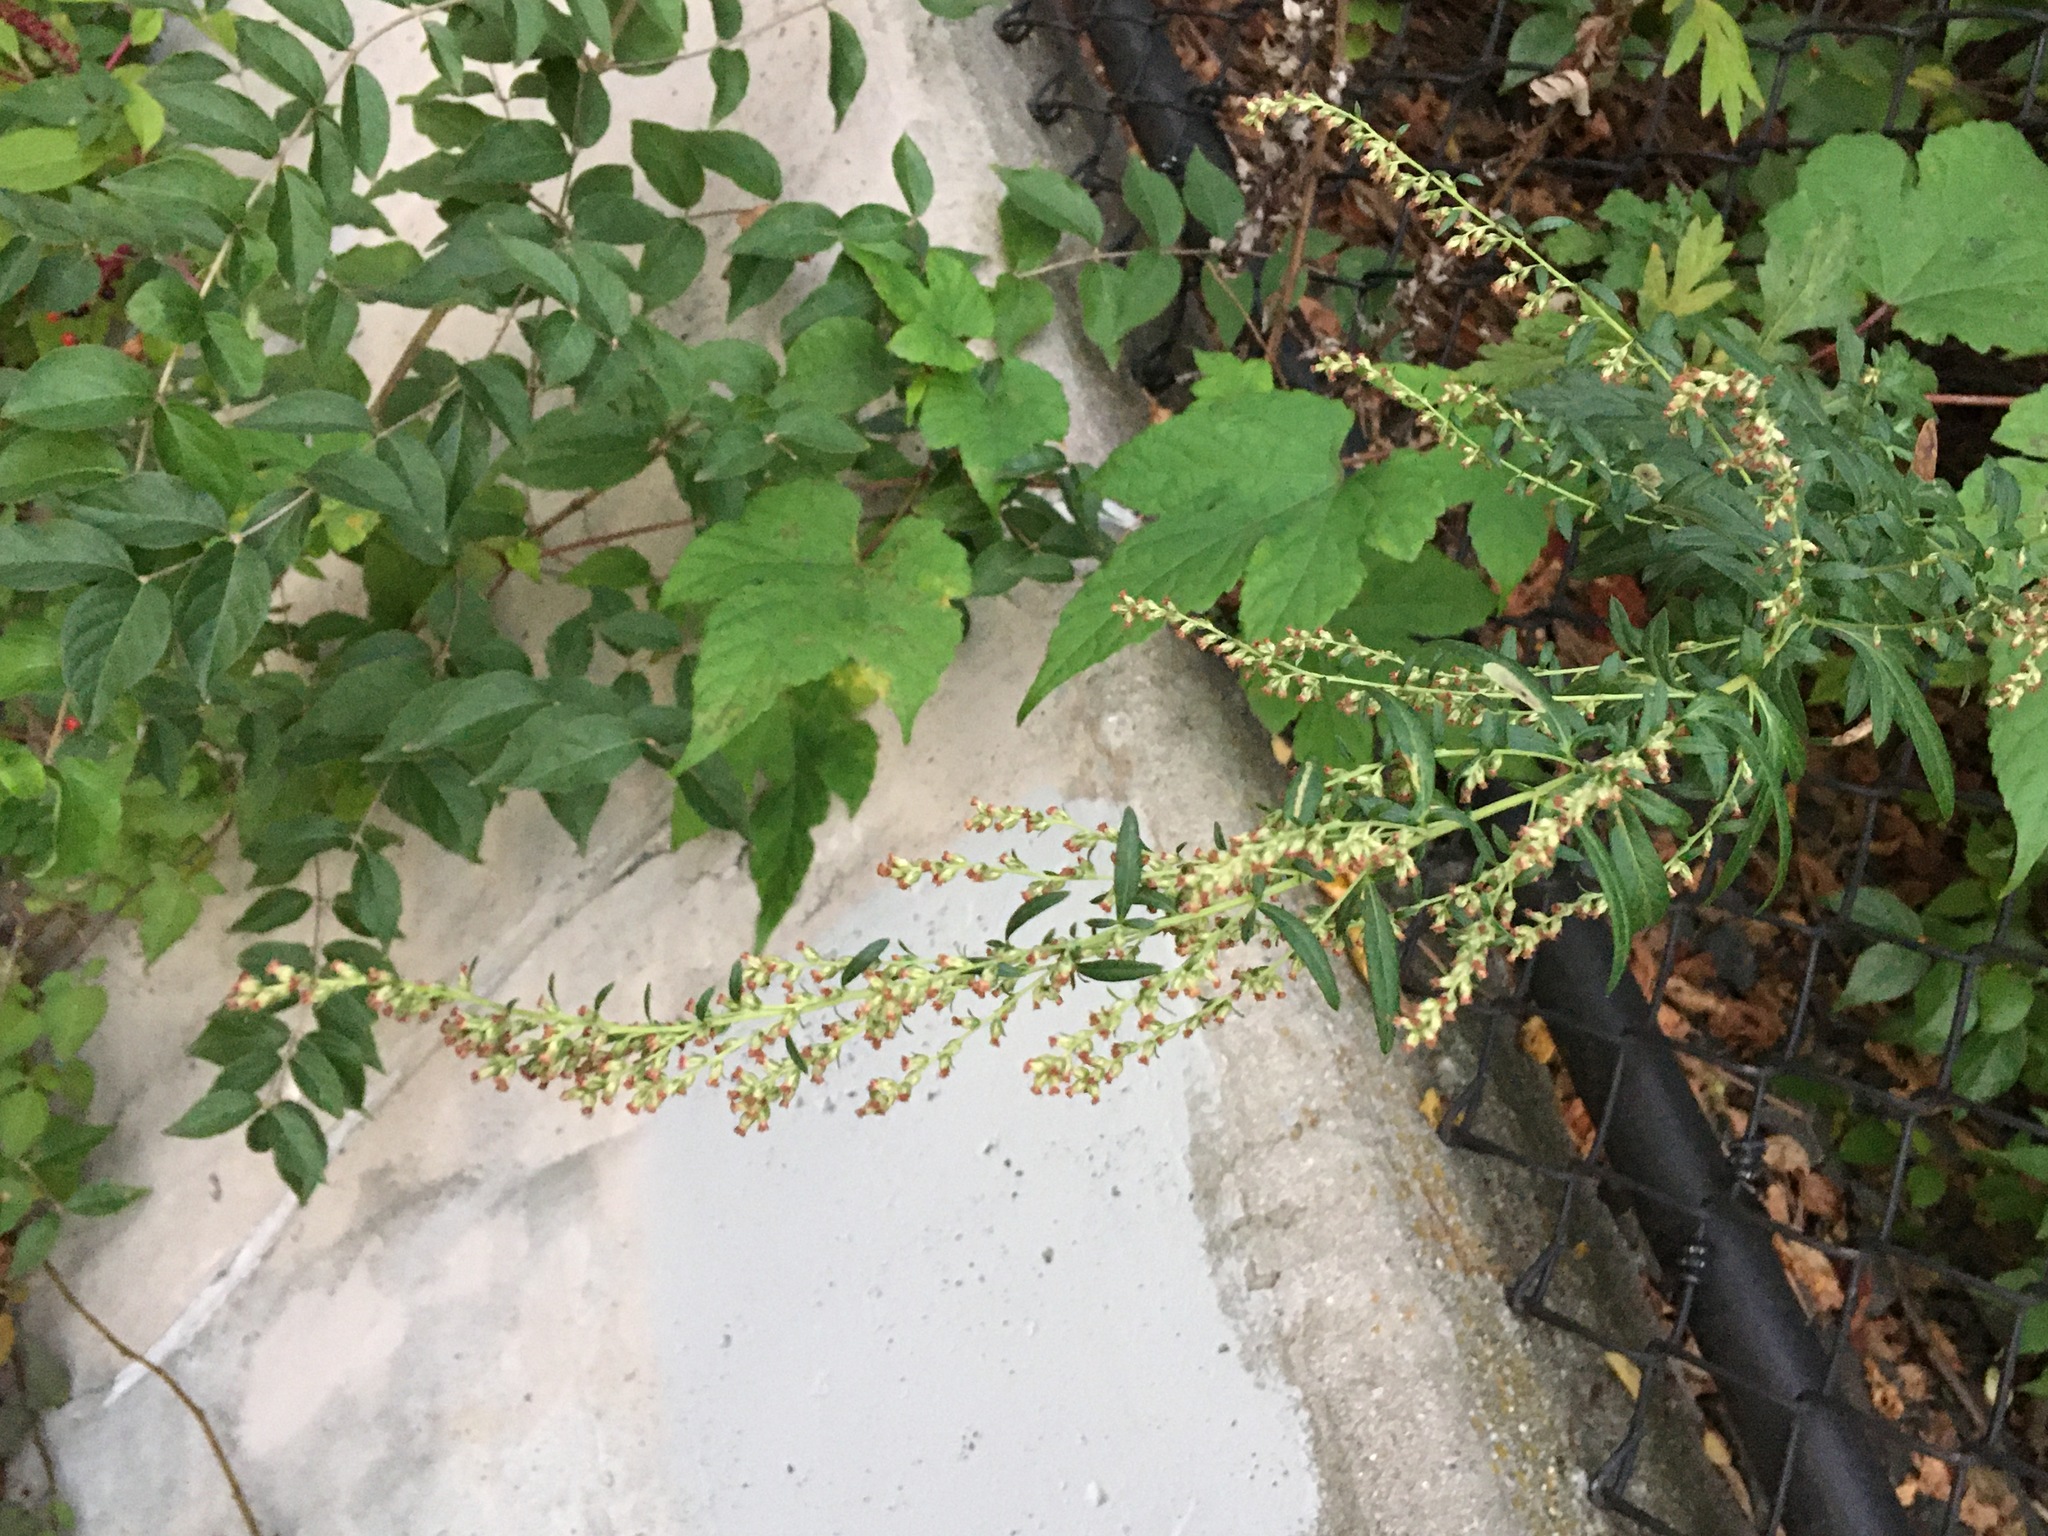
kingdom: Plantae
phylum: Tracheophyta
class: Magnoliopsida
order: Asterales
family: Asteraceae
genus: Artemisia
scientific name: Artemisia vulgaris
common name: Mugwort
